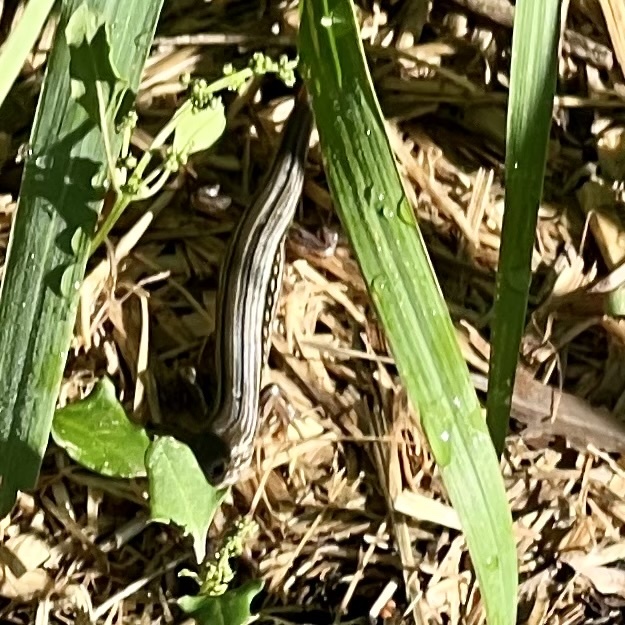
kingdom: Animalia
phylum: Chordata
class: Squamata
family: Scincidae
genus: Ctenotus
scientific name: Ctenotus robustus
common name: Robust ctenotus
